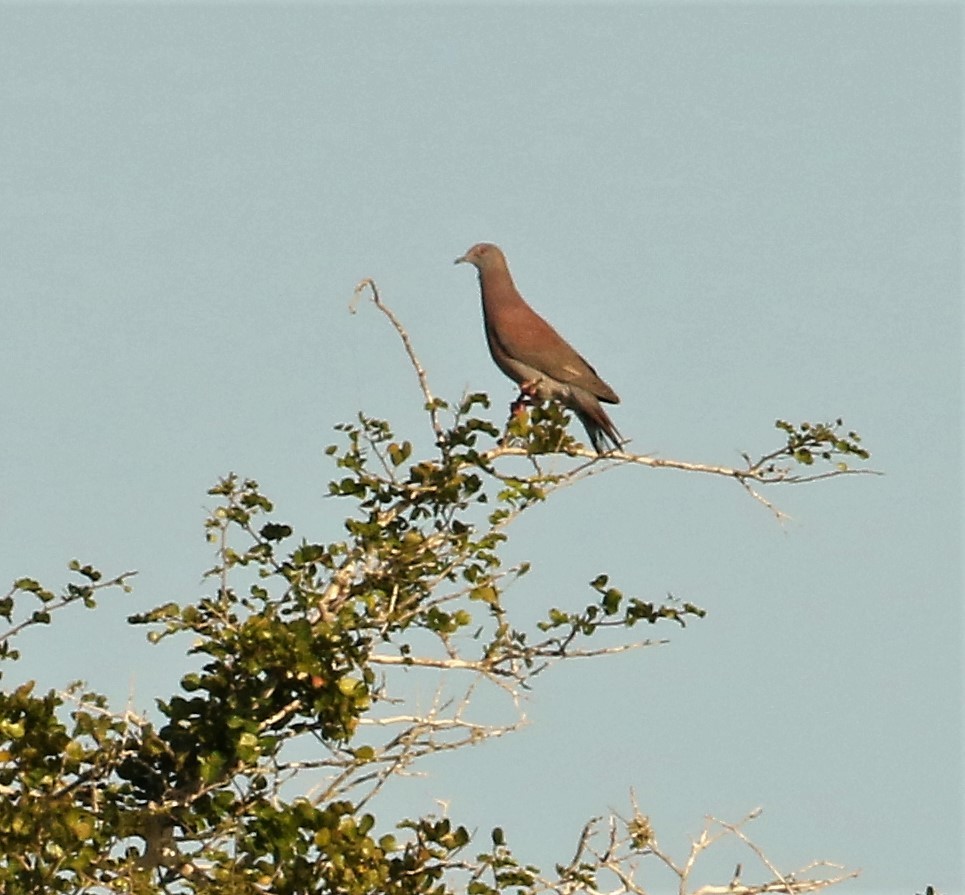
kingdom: Animalia
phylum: Chordata
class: Aves
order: Columbiformes
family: Columbidae
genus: Patagioenas
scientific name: Patagioenas cayennensis
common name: Pale-vented pigeon
